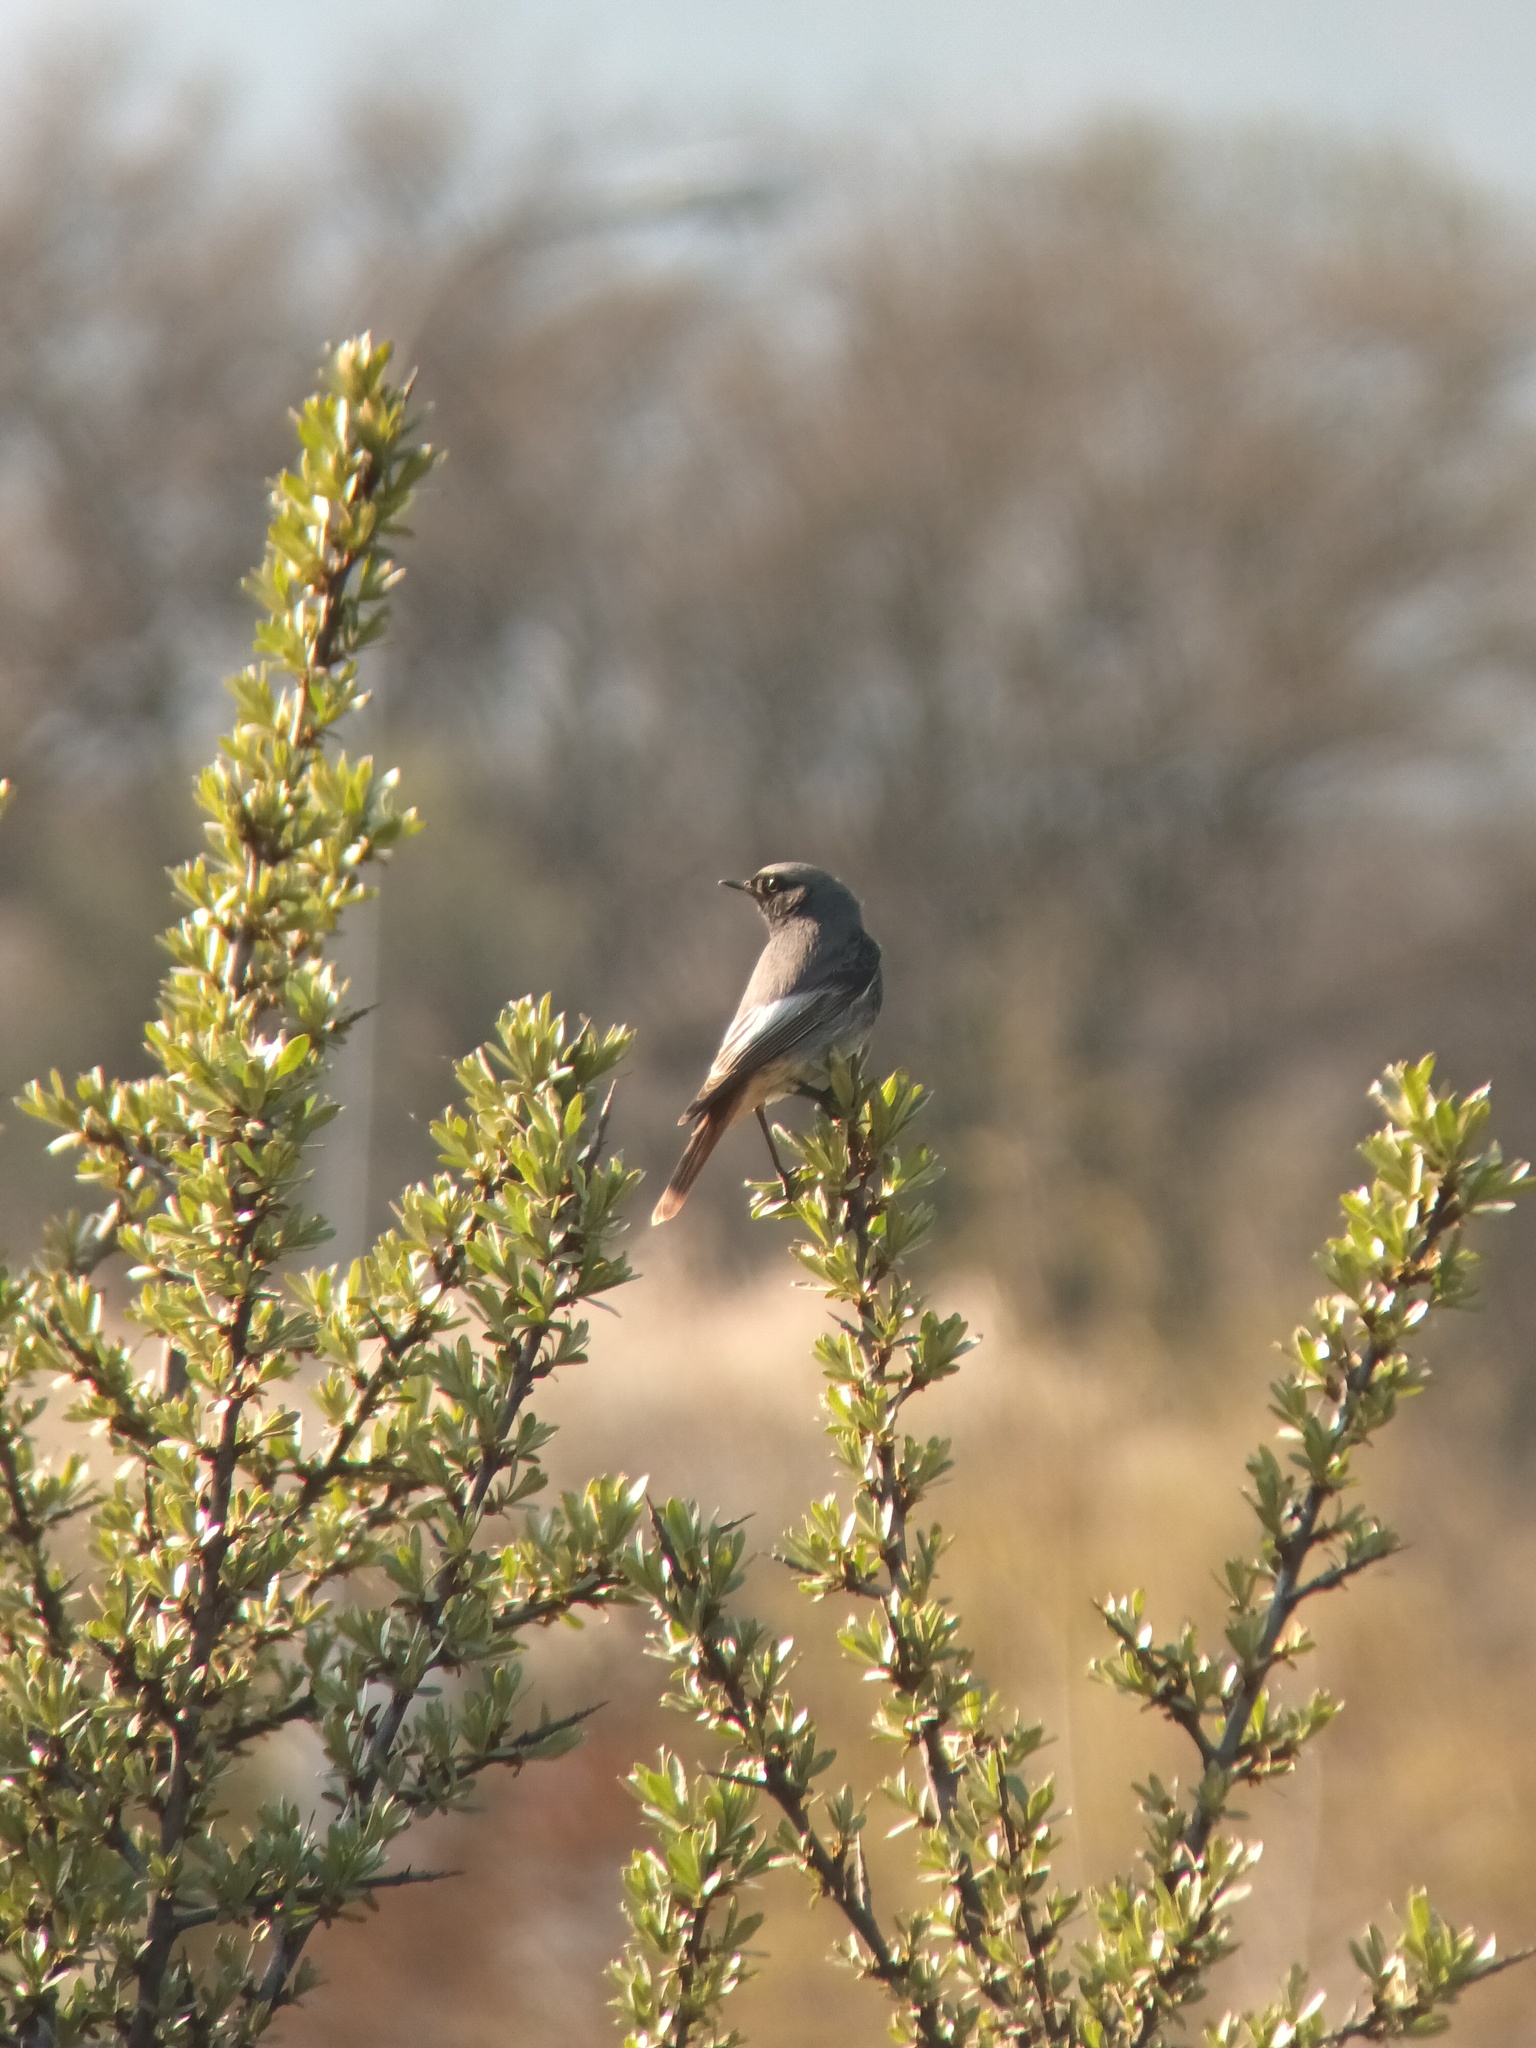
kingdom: Animalia
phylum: Chordata
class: Aves
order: Passeriformes
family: Muscicapidae
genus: Phoenicurus
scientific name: Phoenicurus ochruros
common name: Black redstart
